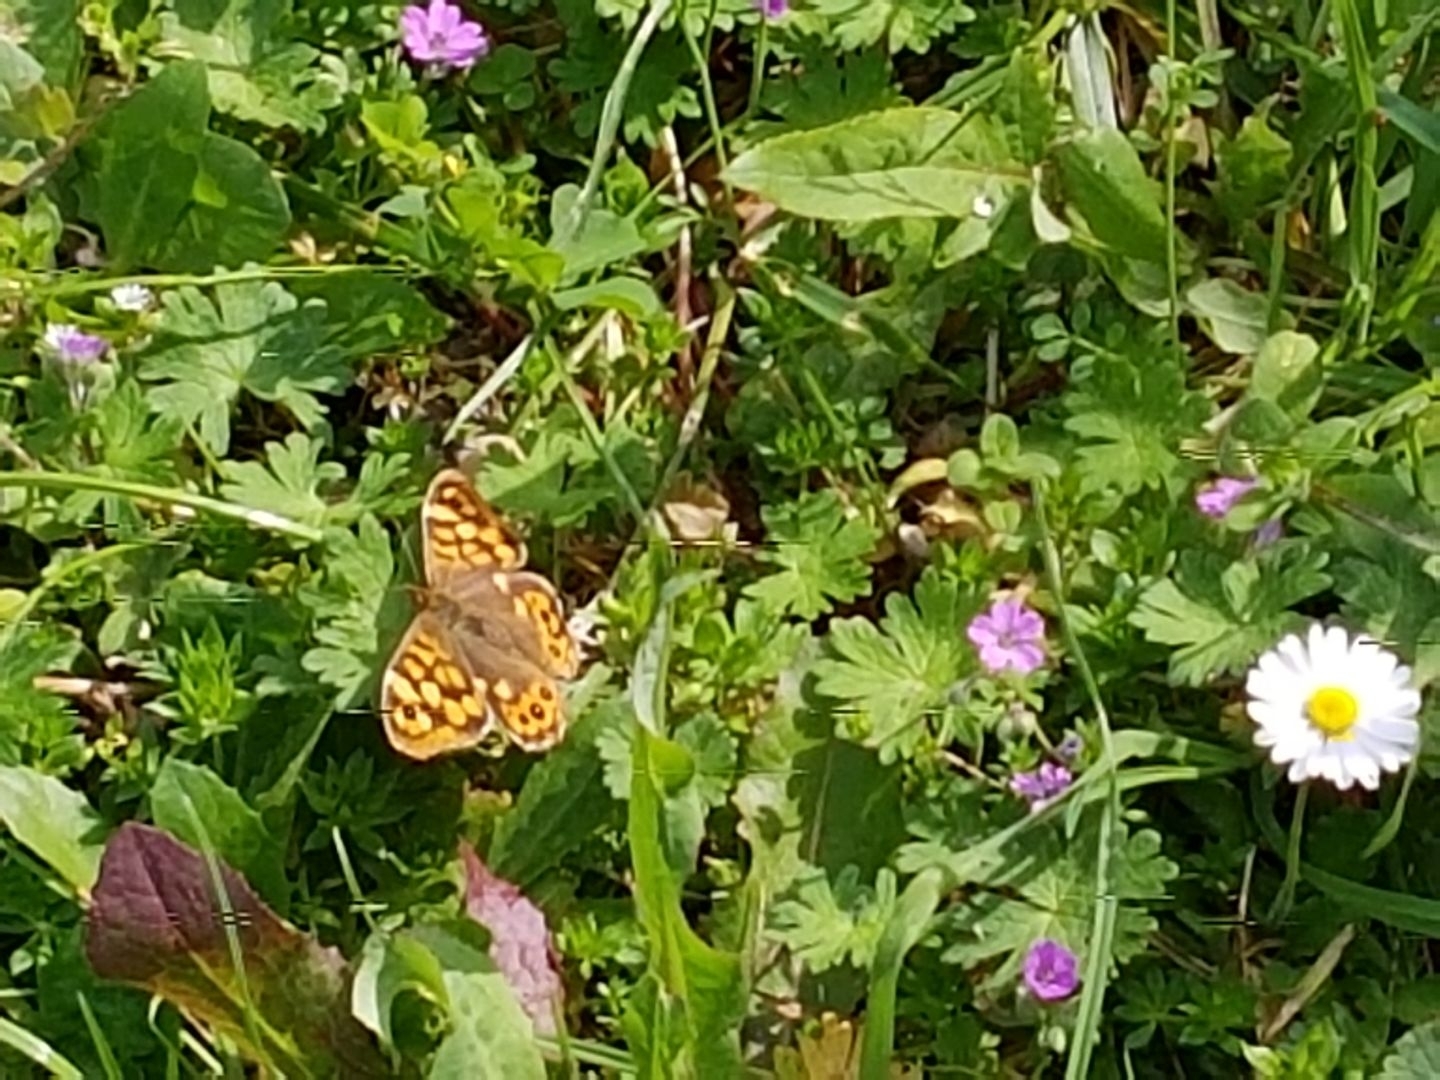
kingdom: Animalia
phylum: Arthropoda
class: Insecta
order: Lepidoptera
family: Nymphalidae
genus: Pararge
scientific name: Pararge aegeria
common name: Speckled wood
